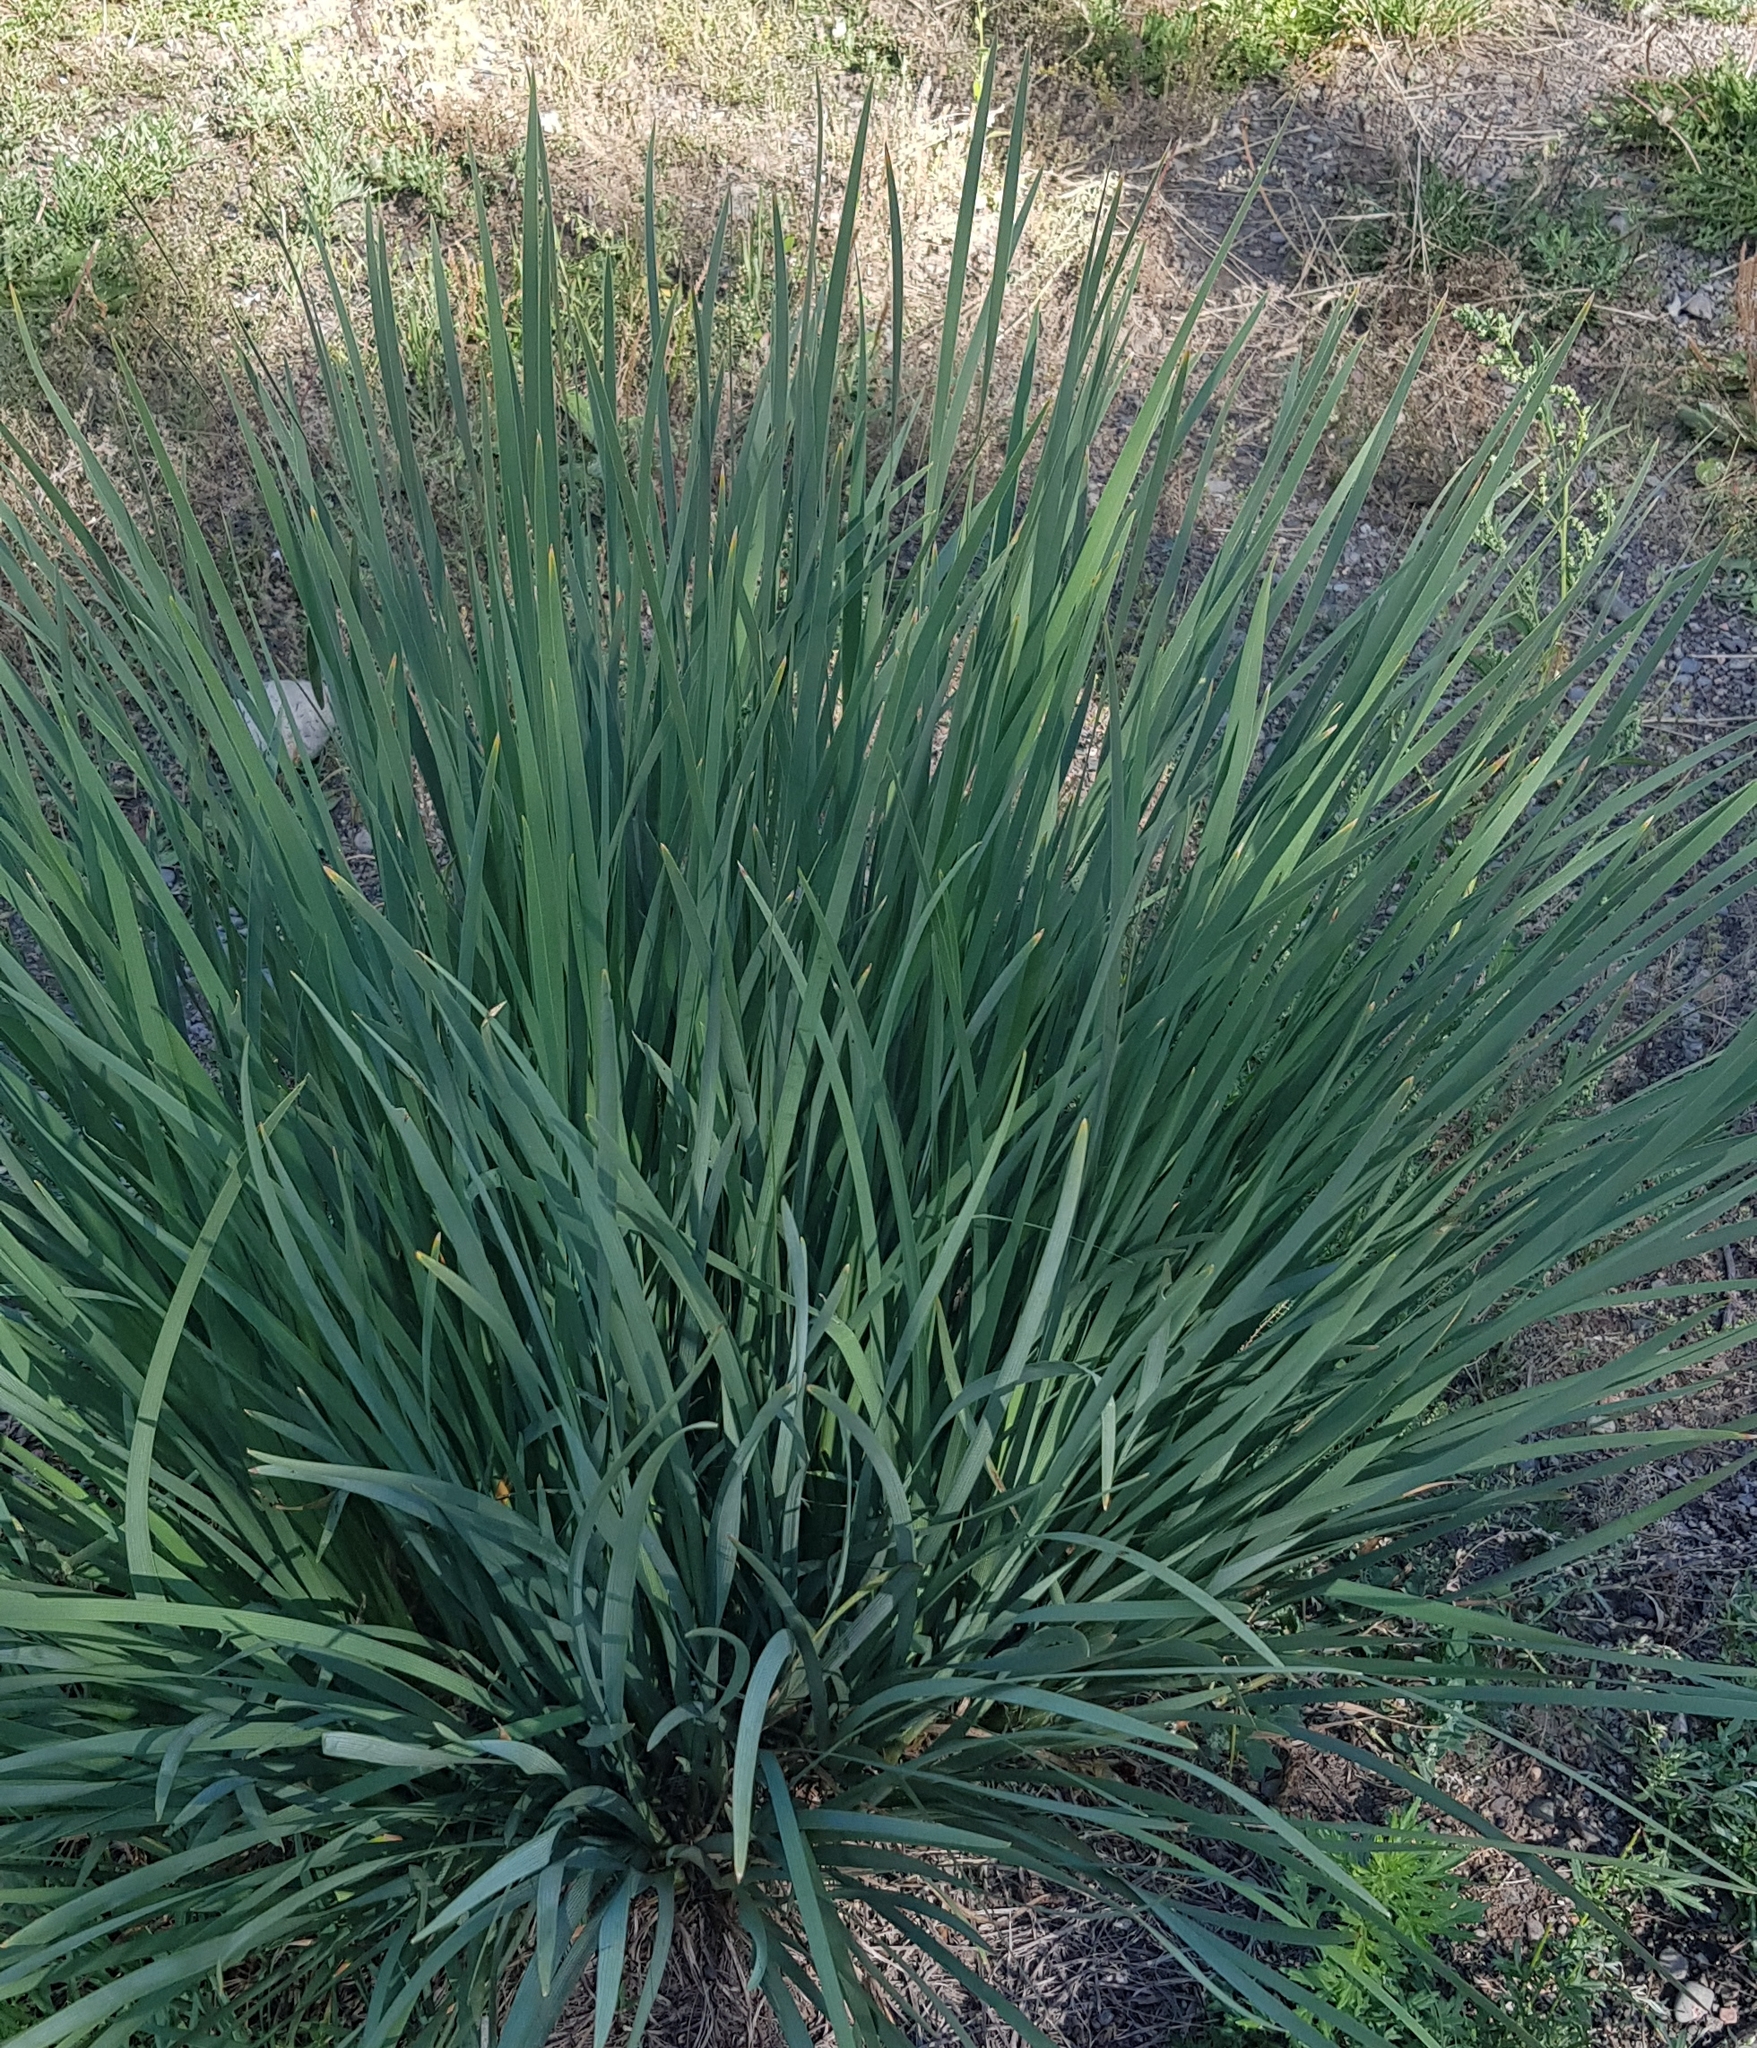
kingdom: Plantae
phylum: Tracheophyta
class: Liliopsida
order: Asparagales
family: Iridaceae
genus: Iris
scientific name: Iris lactea
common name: White-flower chinese iris
